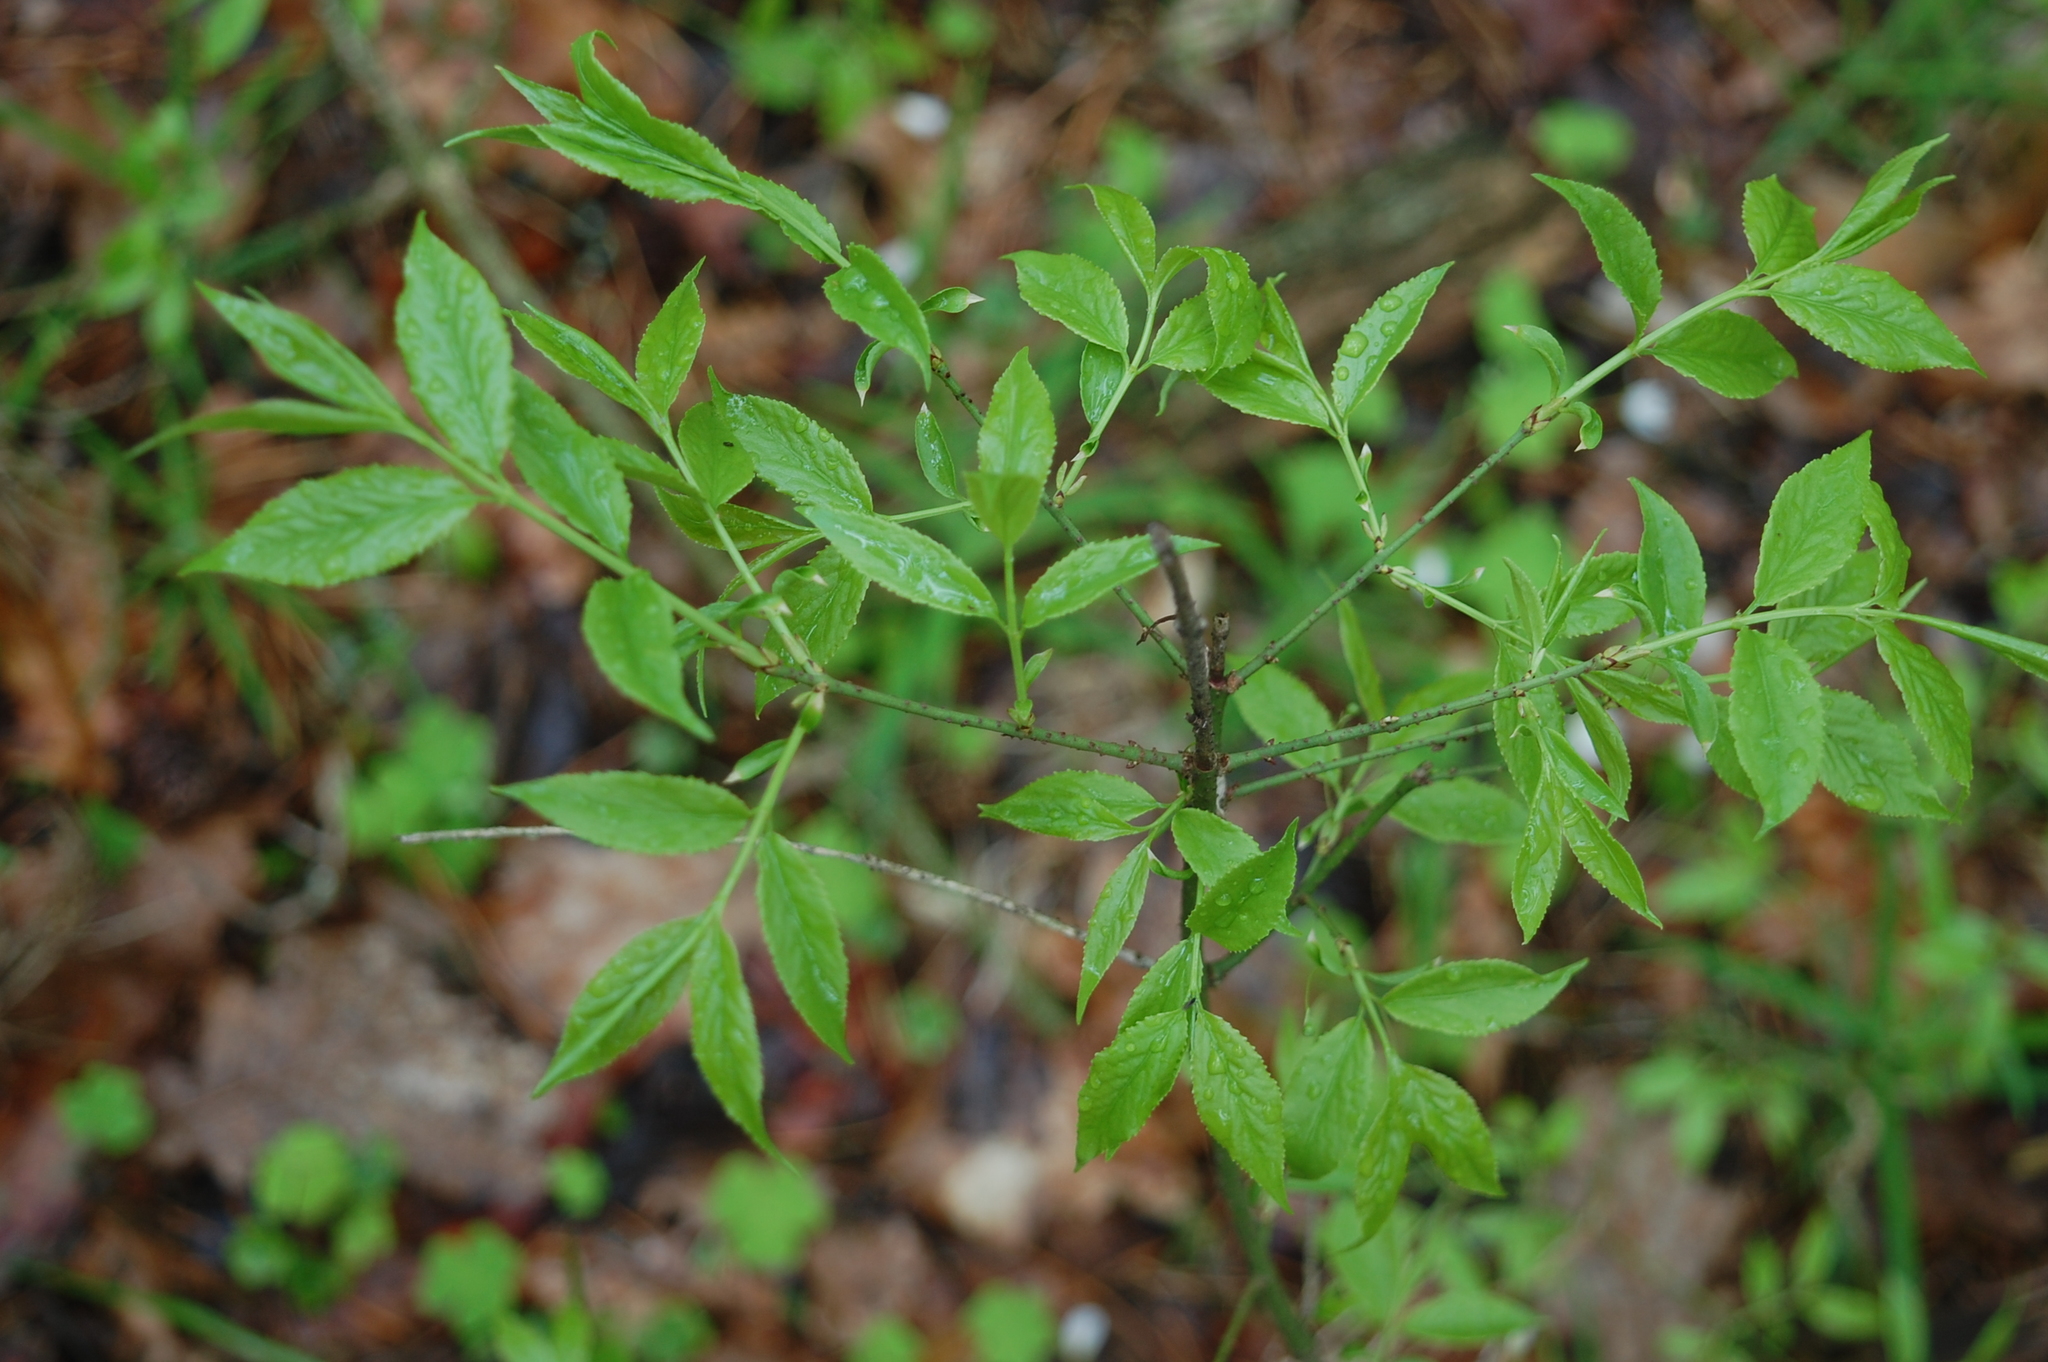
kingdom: Plantae
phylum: Tracheophyta
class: Magnoliopsida
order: Celastrales
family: Celastraceae
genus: Euonymus
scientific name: Euonymus verrucosus
